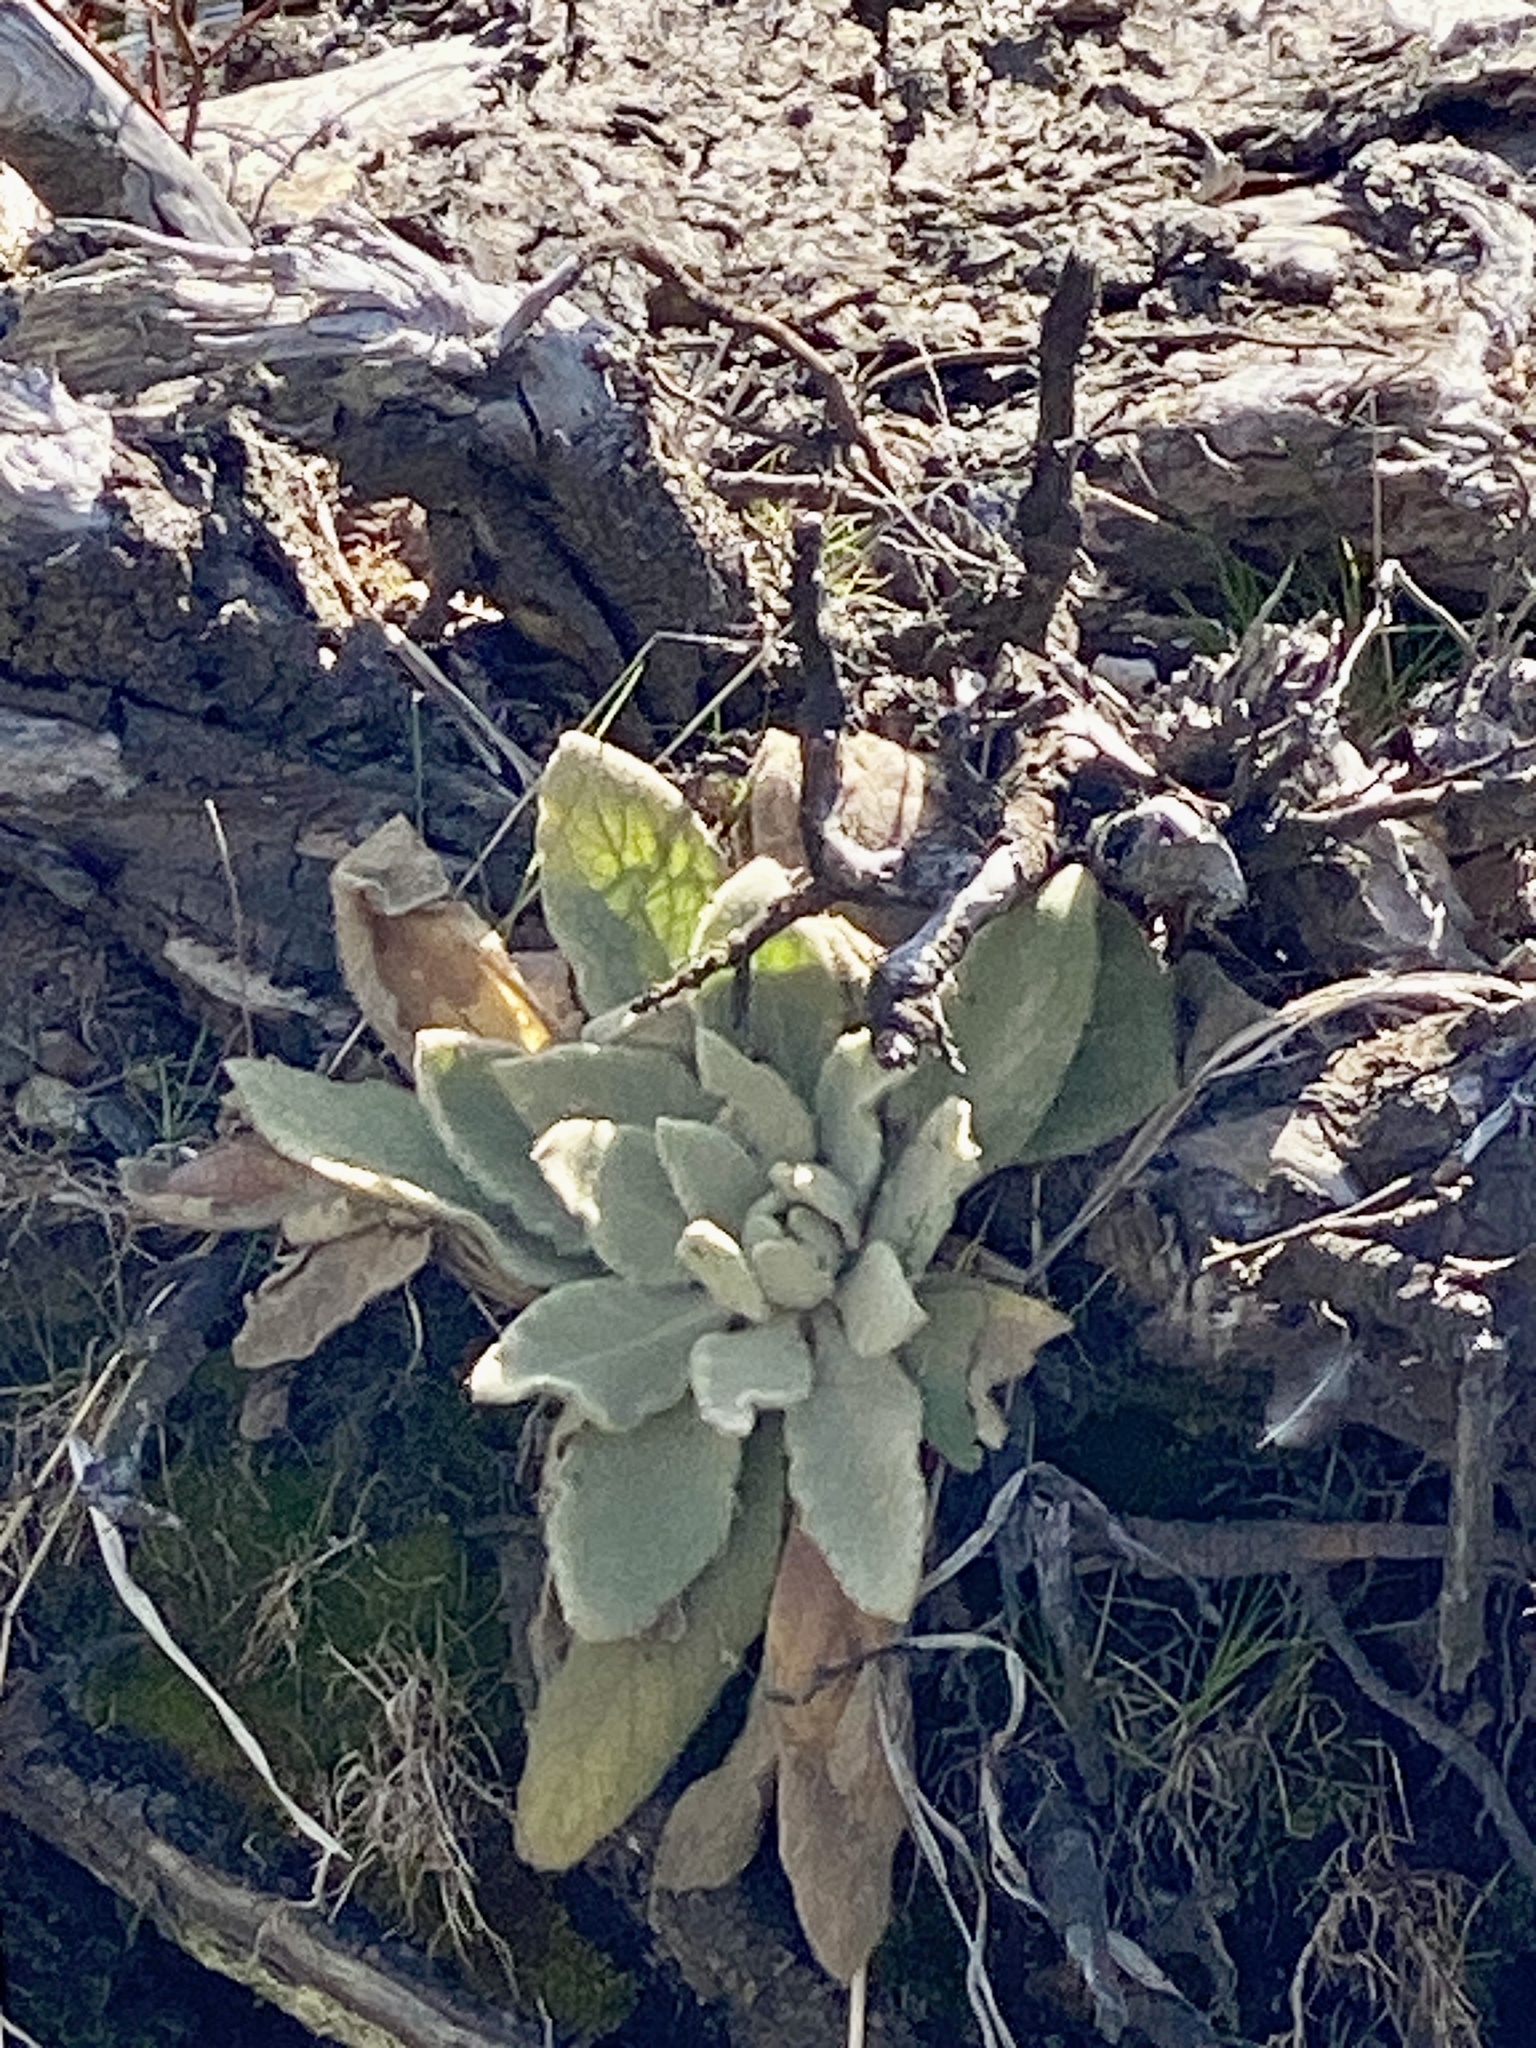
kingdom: Plantae
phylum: Tracheophyta
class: Magnoliopsida
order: Lamiales
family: Scrophulariaceae
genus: Verbascum
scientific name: Verbascum thapsus
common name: Common mullein
